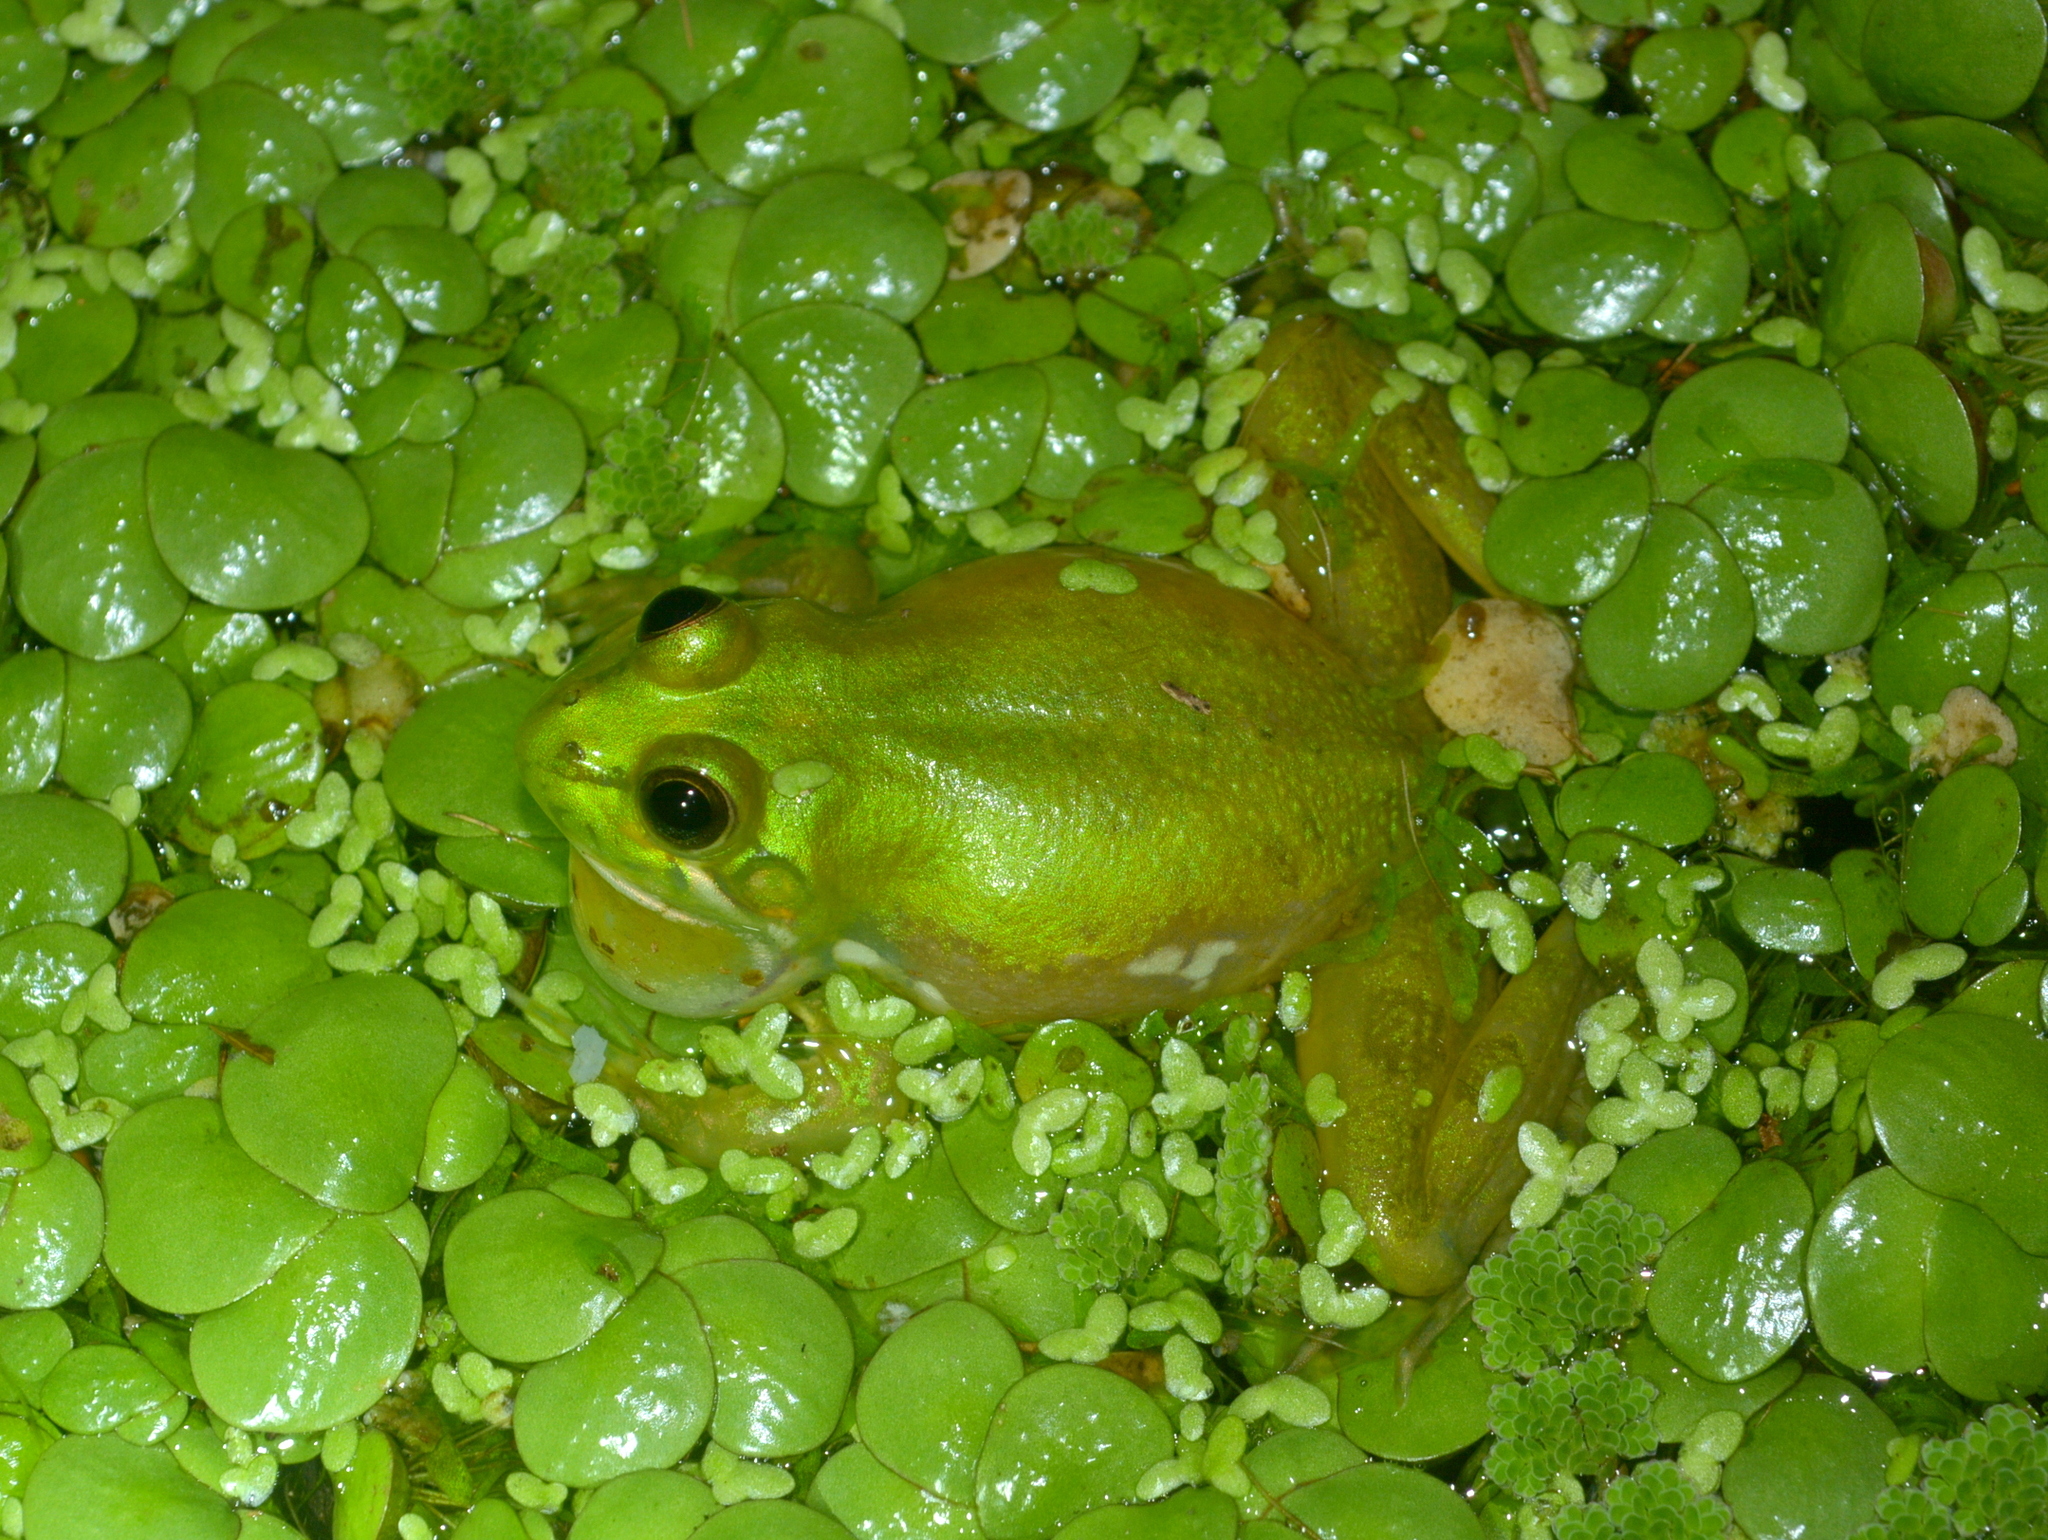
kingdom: Animalia
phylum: Chordata
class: Amphibia
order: Anura
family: Hylidae
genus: Pseudis
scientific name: Pseudis minuta
